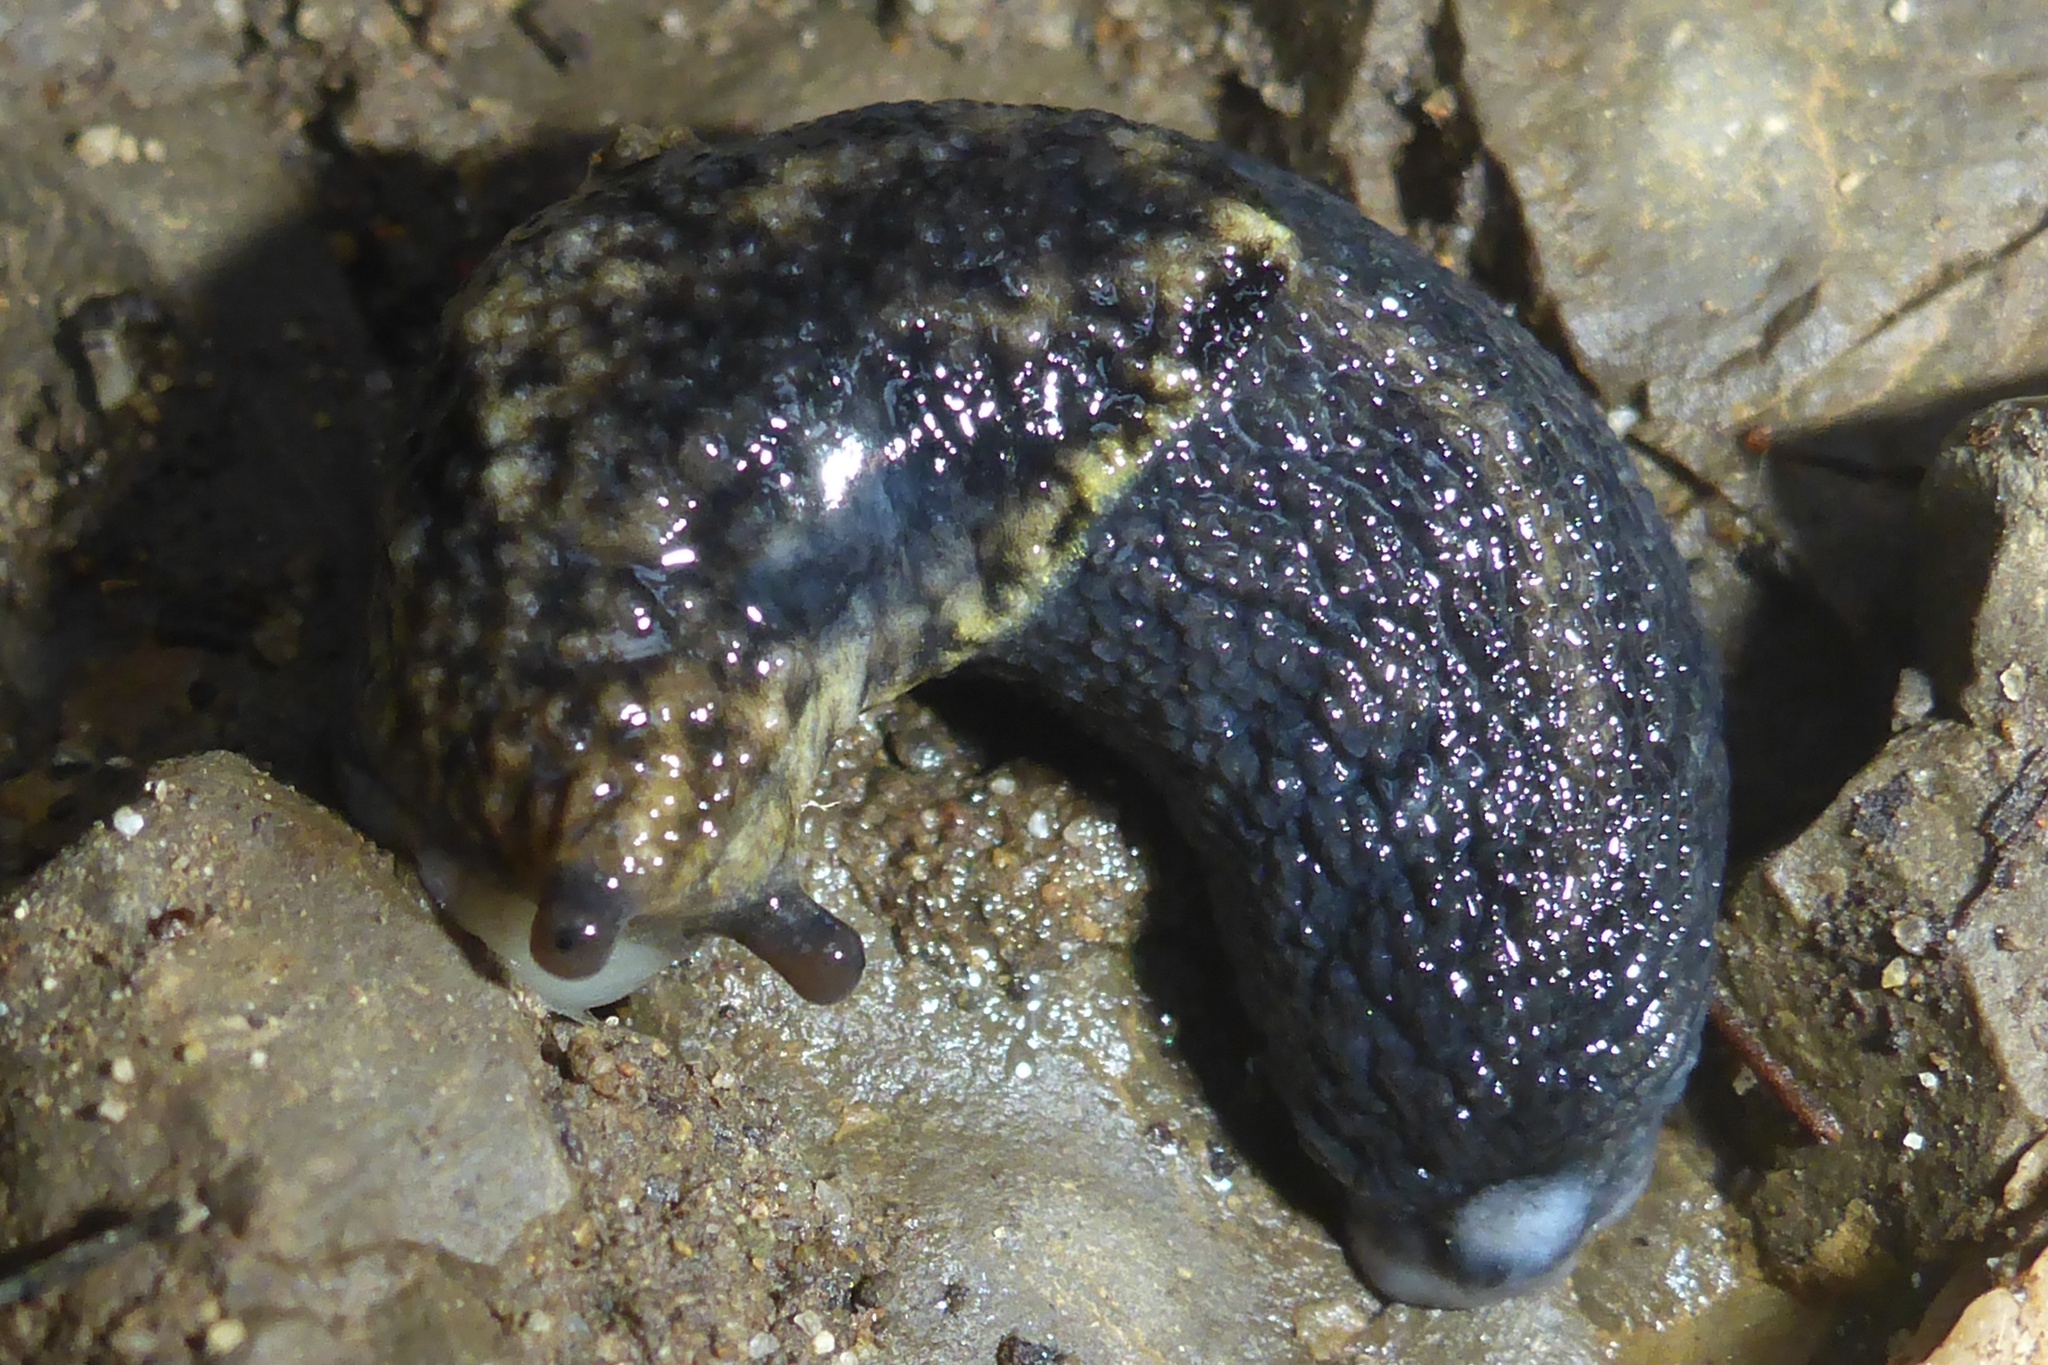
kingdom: Animalia
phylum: Mollusca
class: Gastropoda
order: Stylommatophora
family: Ariolimacidae
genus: Prophysaon
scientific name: Prophysaon andersonii
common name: Reticulate taildropper
